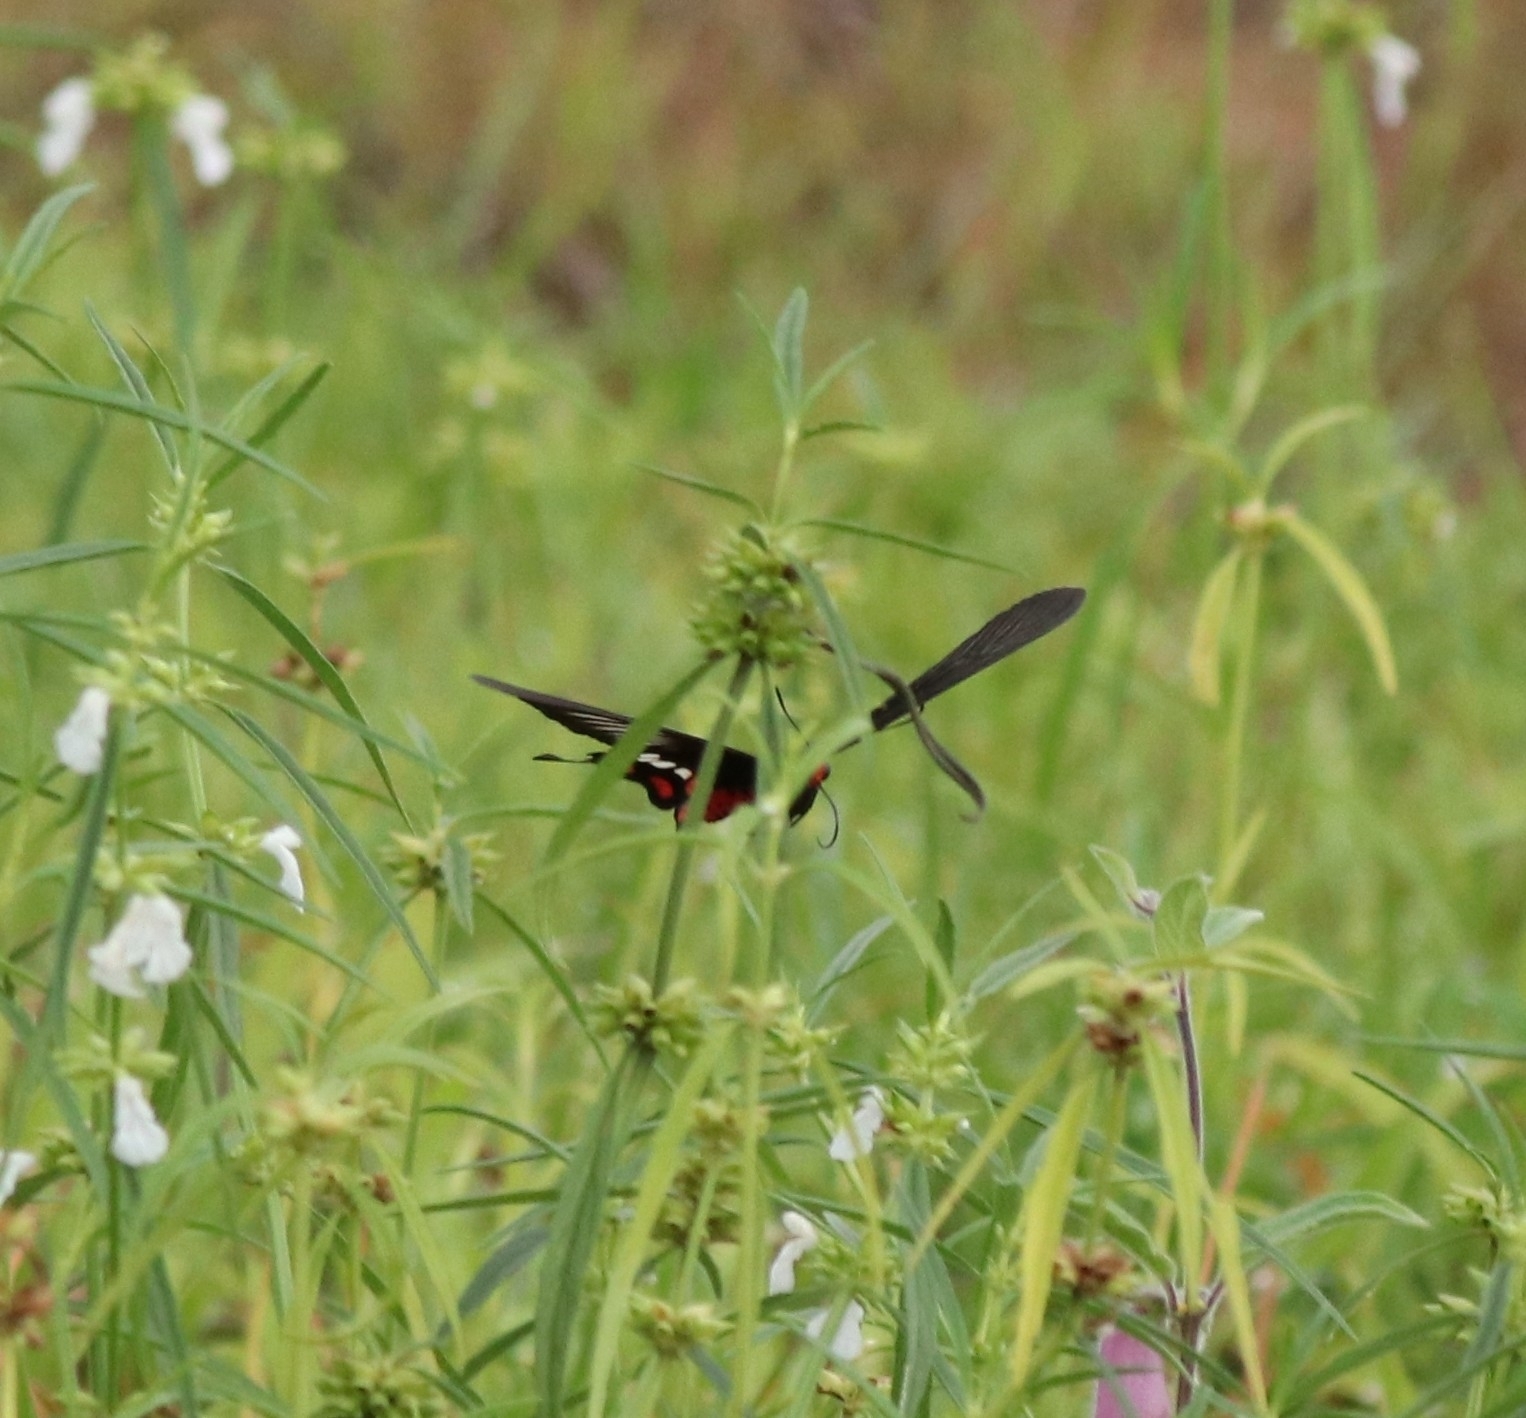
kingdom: Animalia
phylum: Arthropoda
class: Insecta
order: Lepidoptera
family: Papilionidae
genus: Pachliopta
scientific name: Pachliopta aristolochiae
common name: Common rose
